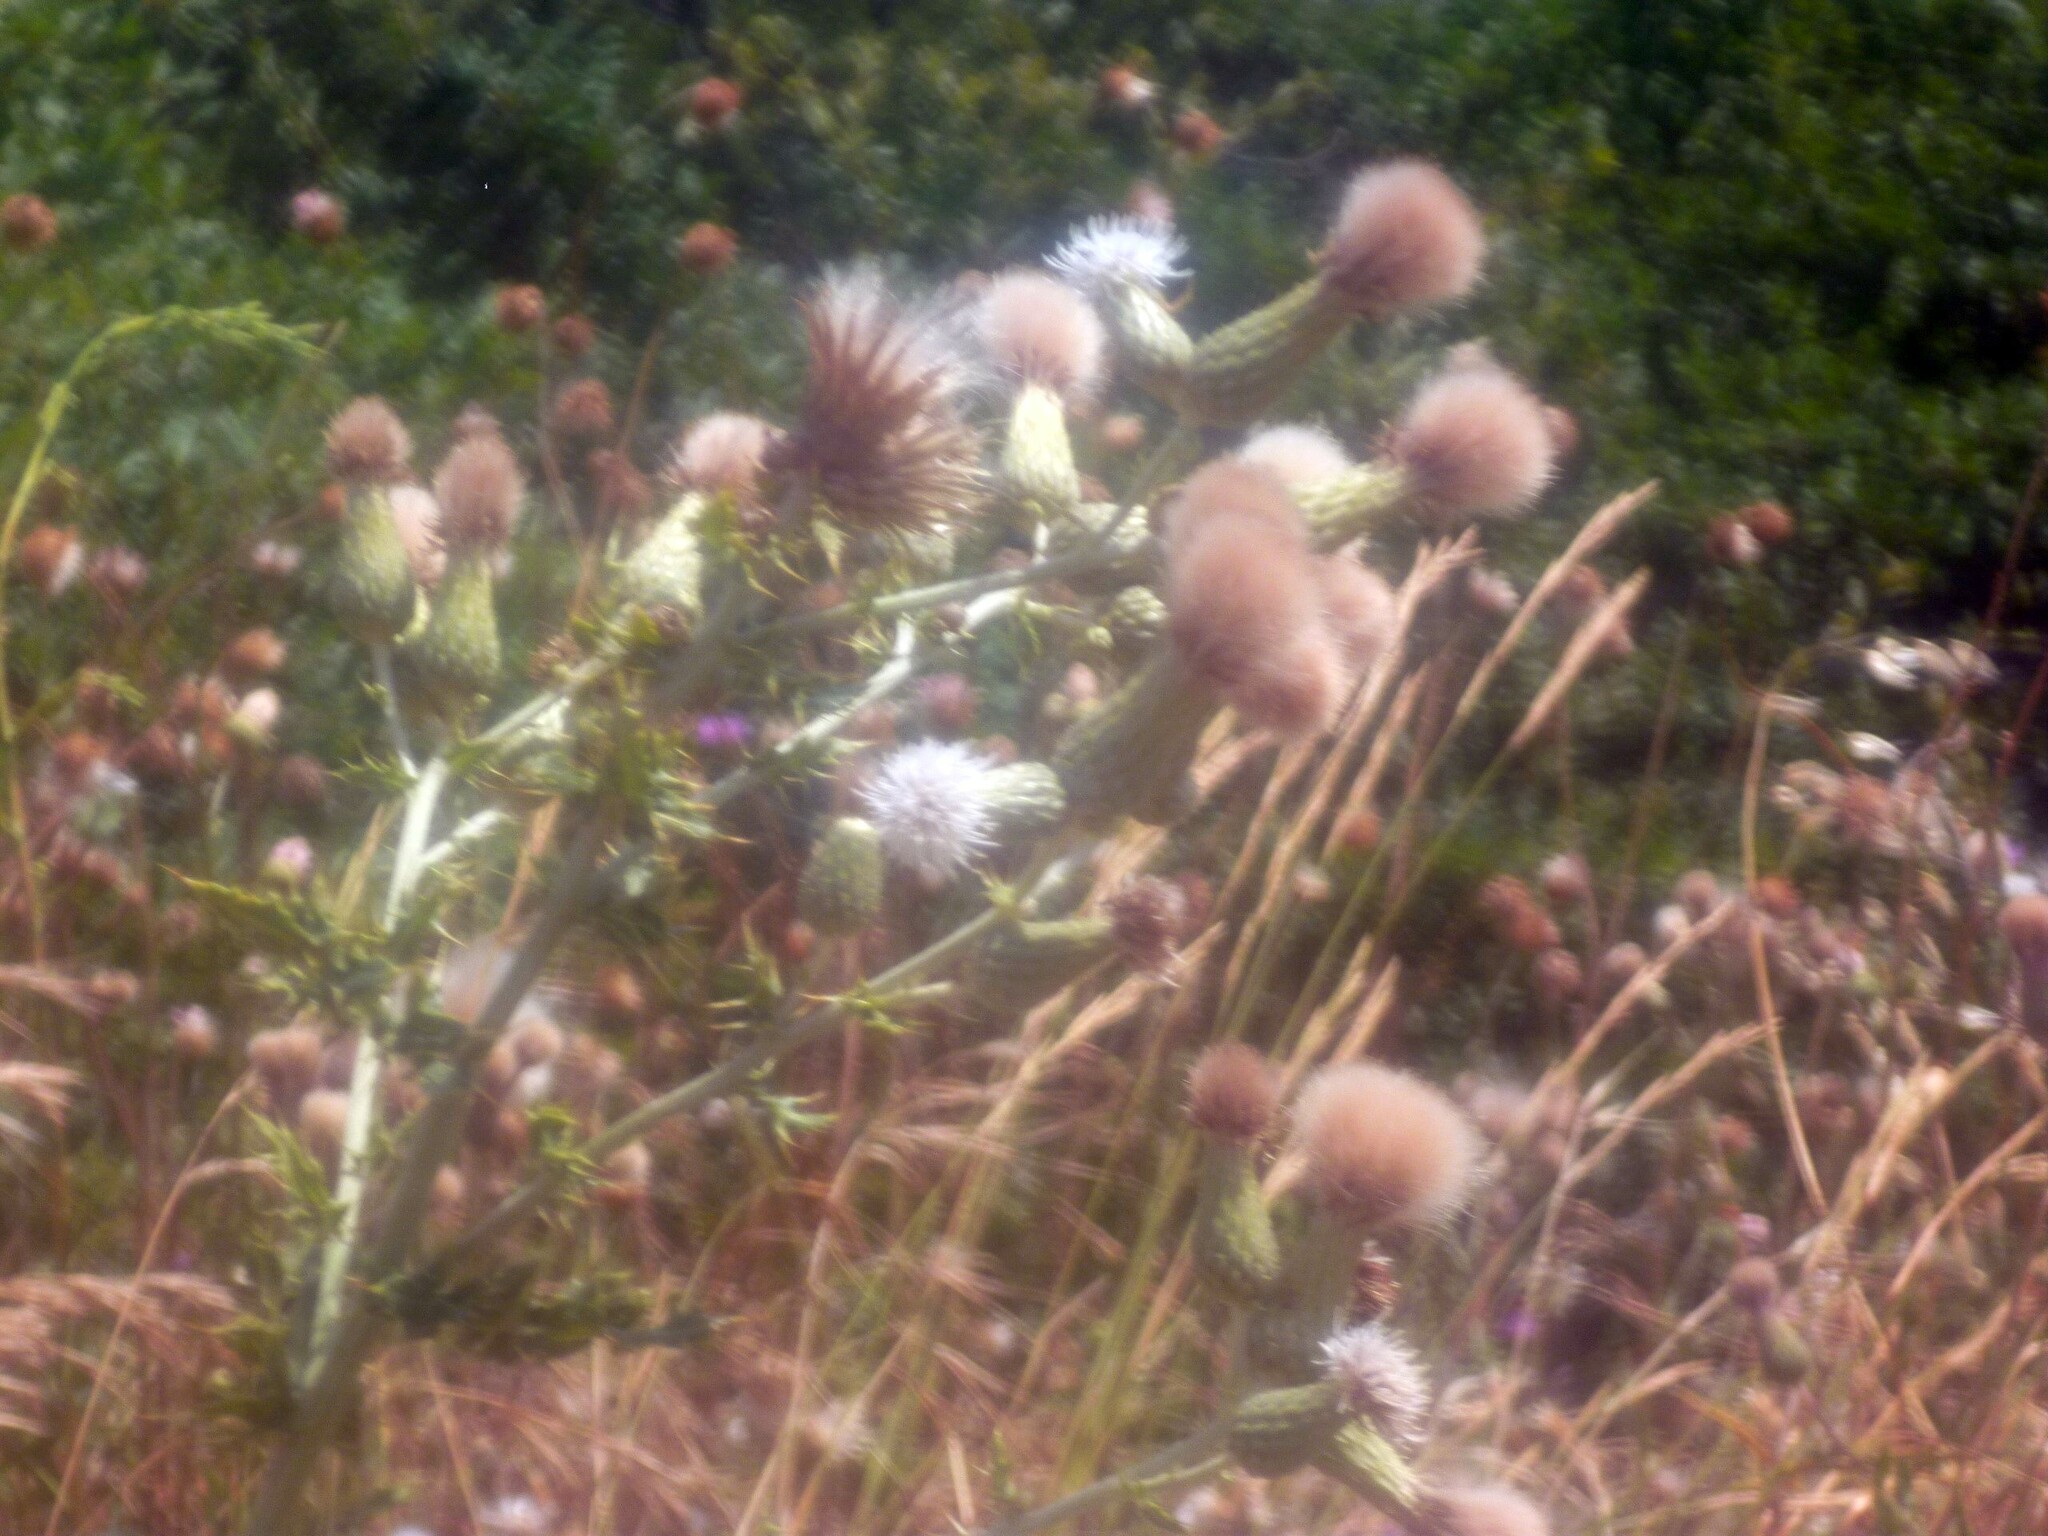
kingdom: Plantae
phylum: Tracheophyta
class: Magnoliopsida
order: Asterales
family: Asteraceae
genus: Cirsium
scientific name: Cirsium arvense
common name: Creeping thistle
